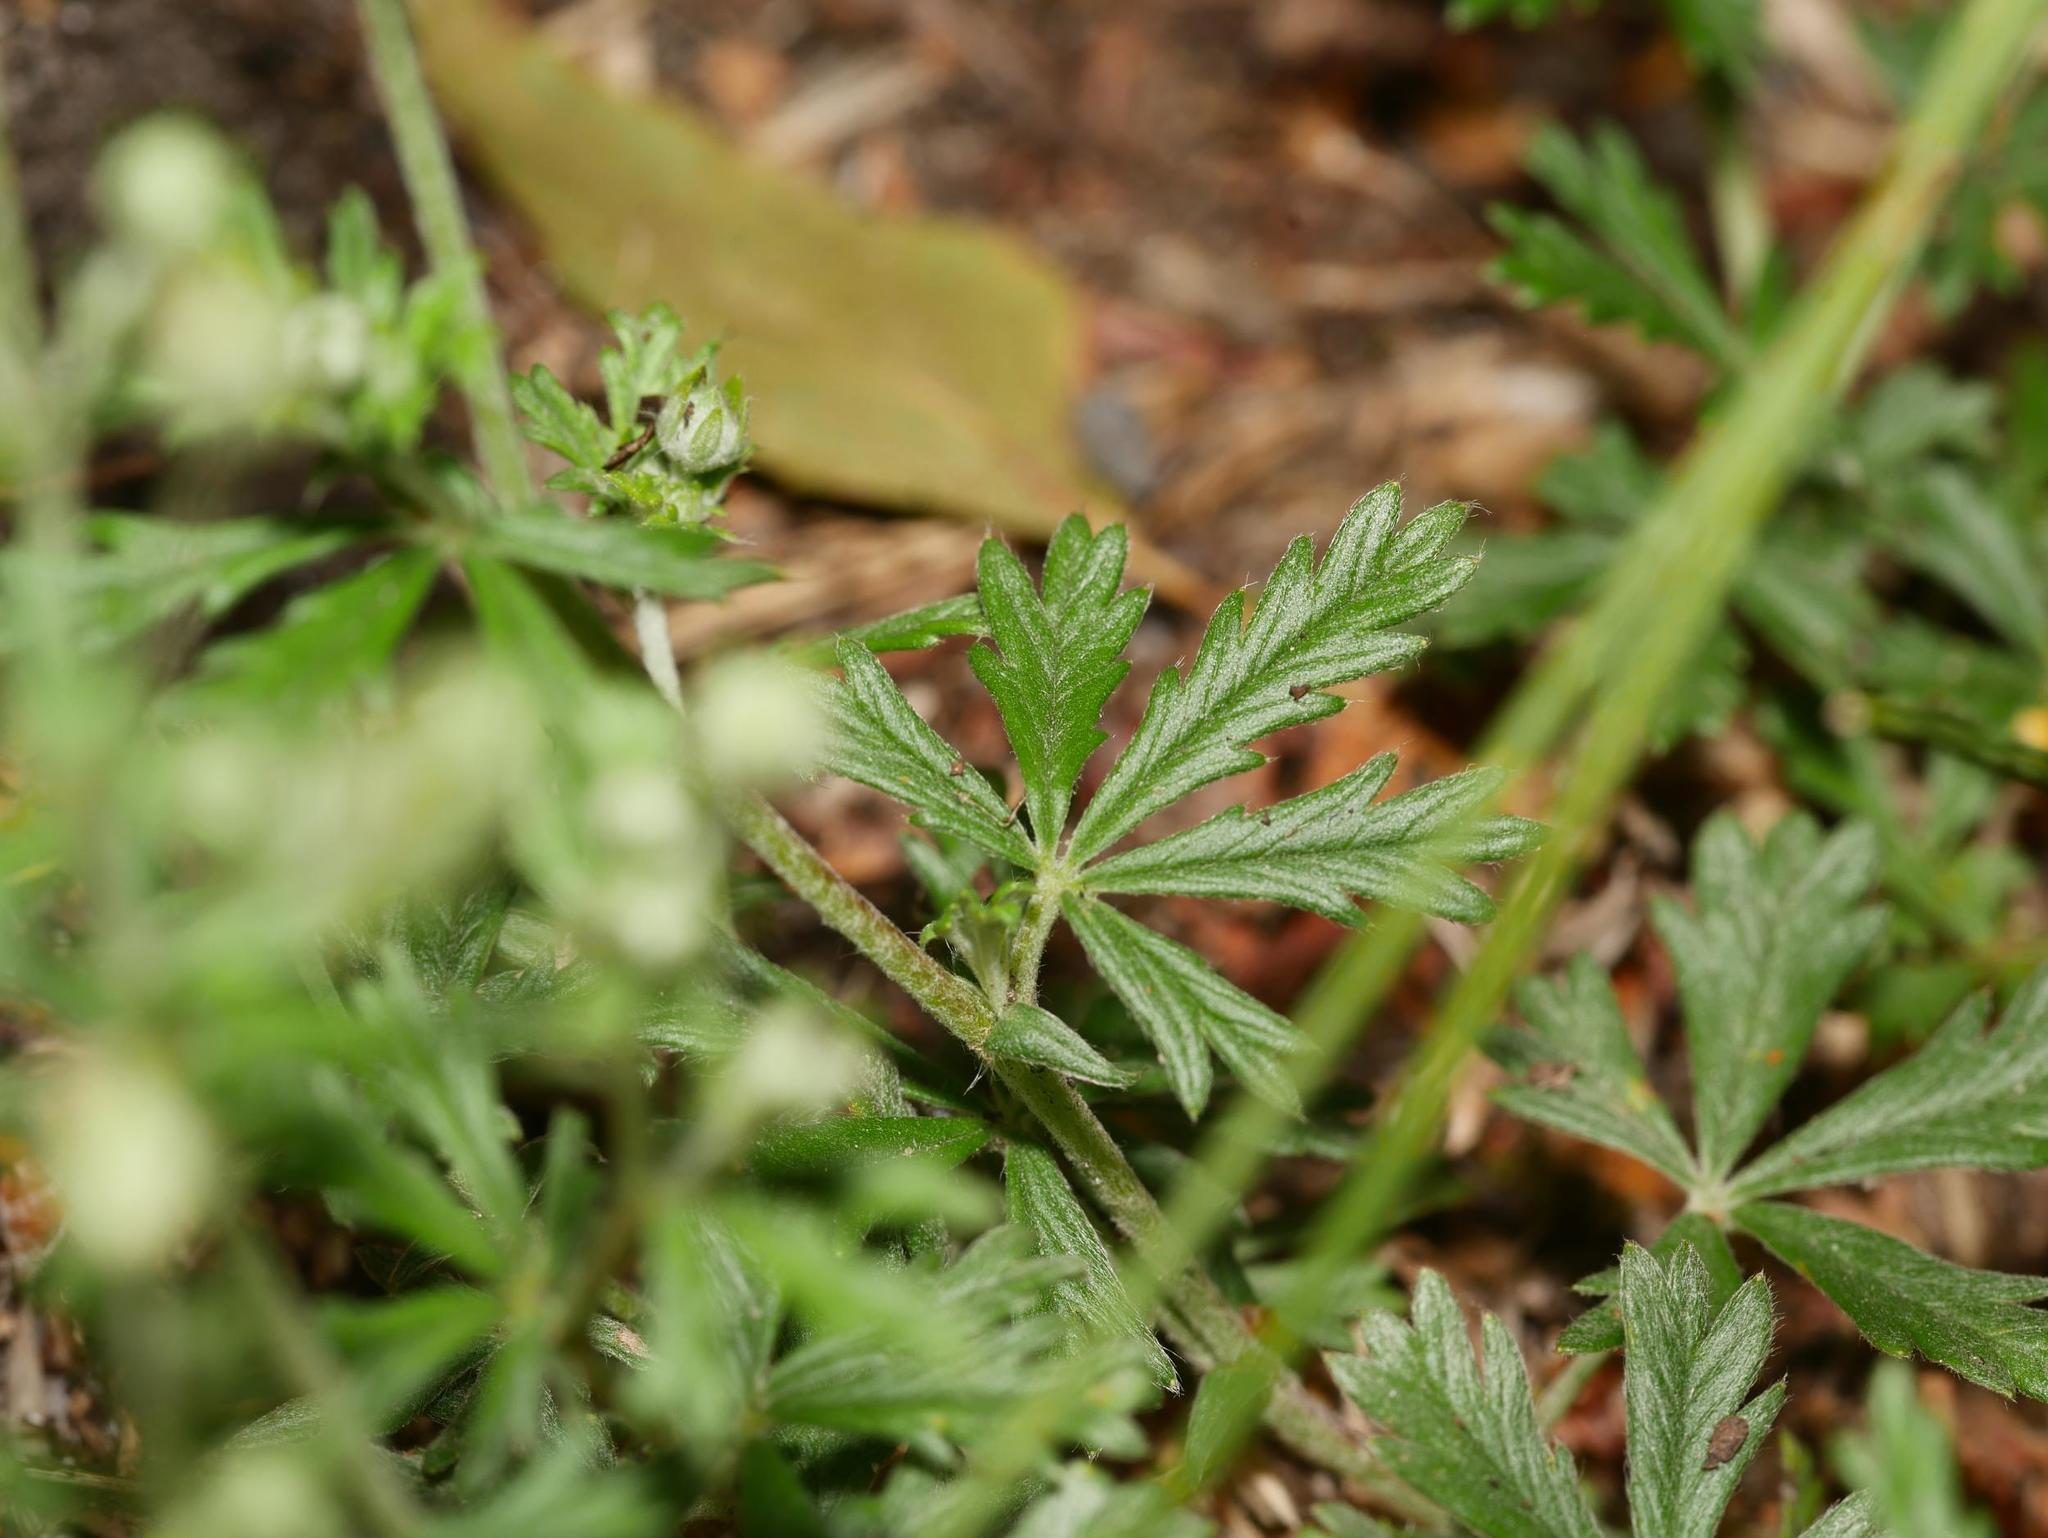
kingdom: Plantae
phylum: Tracheophyta
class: Magnoliopsida
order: Rosales
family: Rosaceae
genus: Potentilla
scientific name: Potentilla argentea
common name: Hoary cinquefoil
